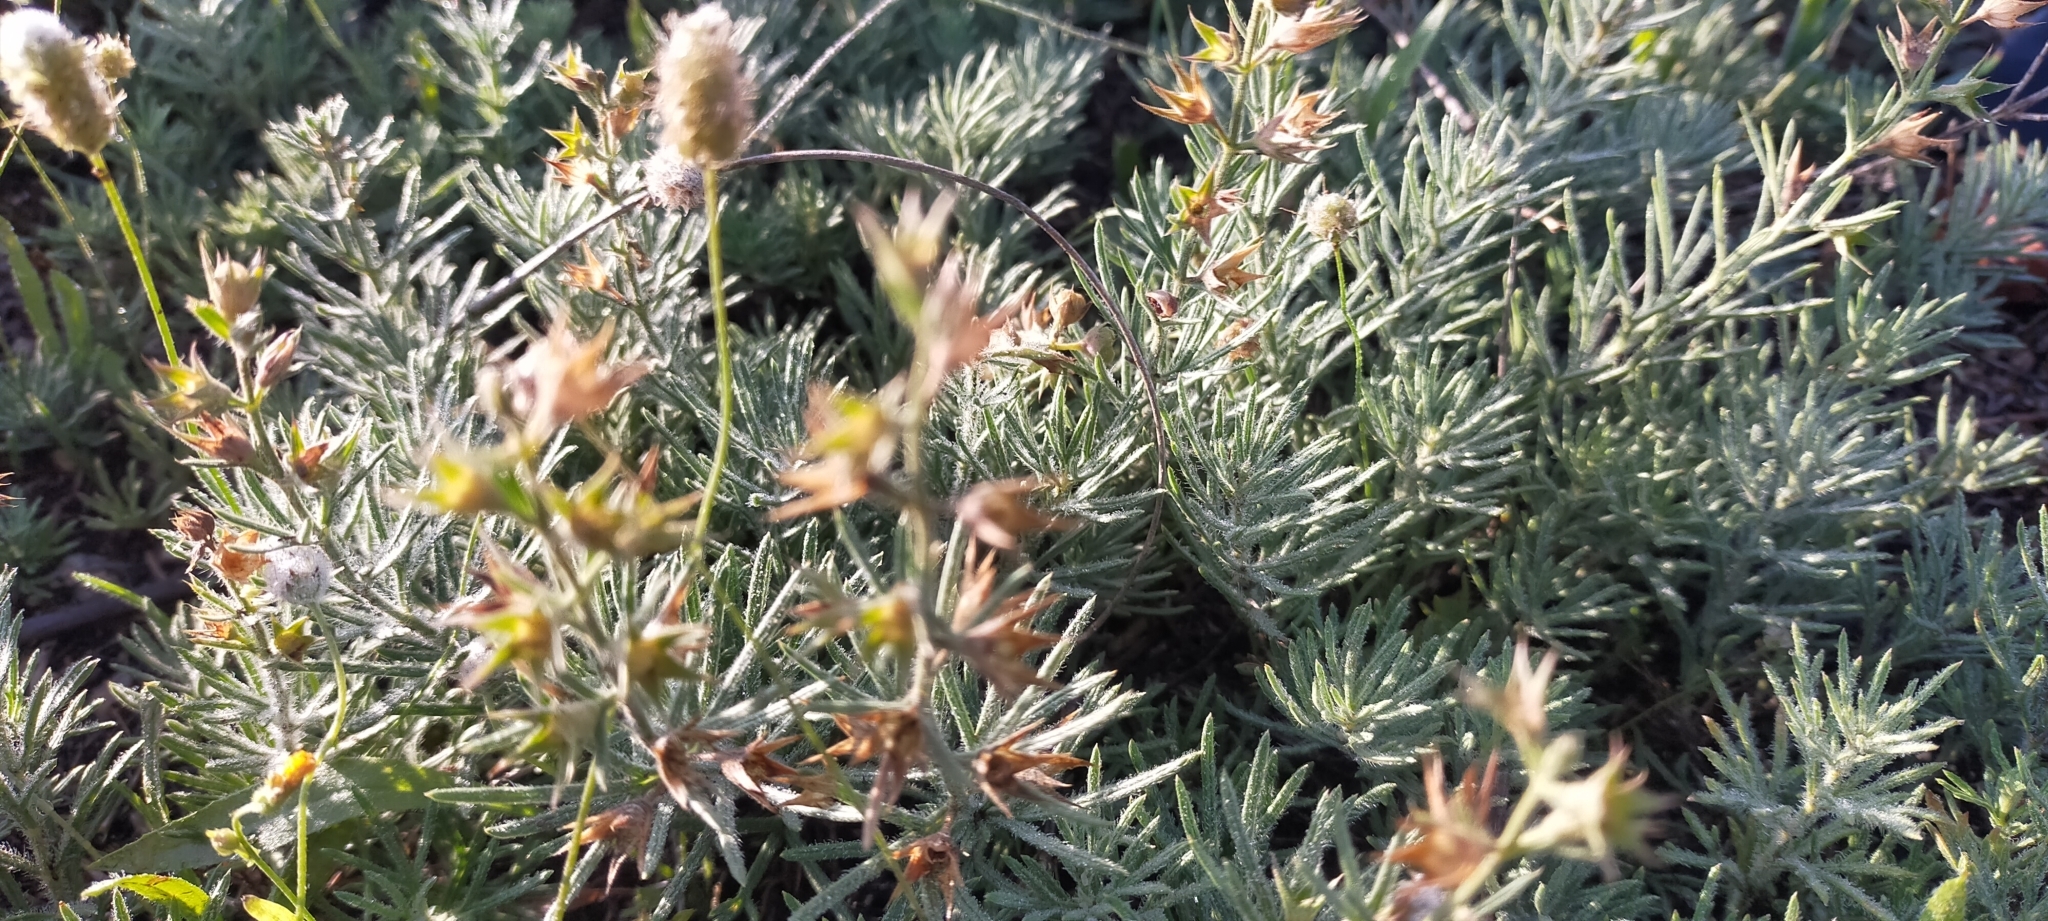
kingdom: Plantae
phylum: Tracheophyta
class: Magnoliopsida
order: Lamiales
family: Lamiaceae
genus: Teucrium
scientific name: Teucrium pseudochamaepitys
